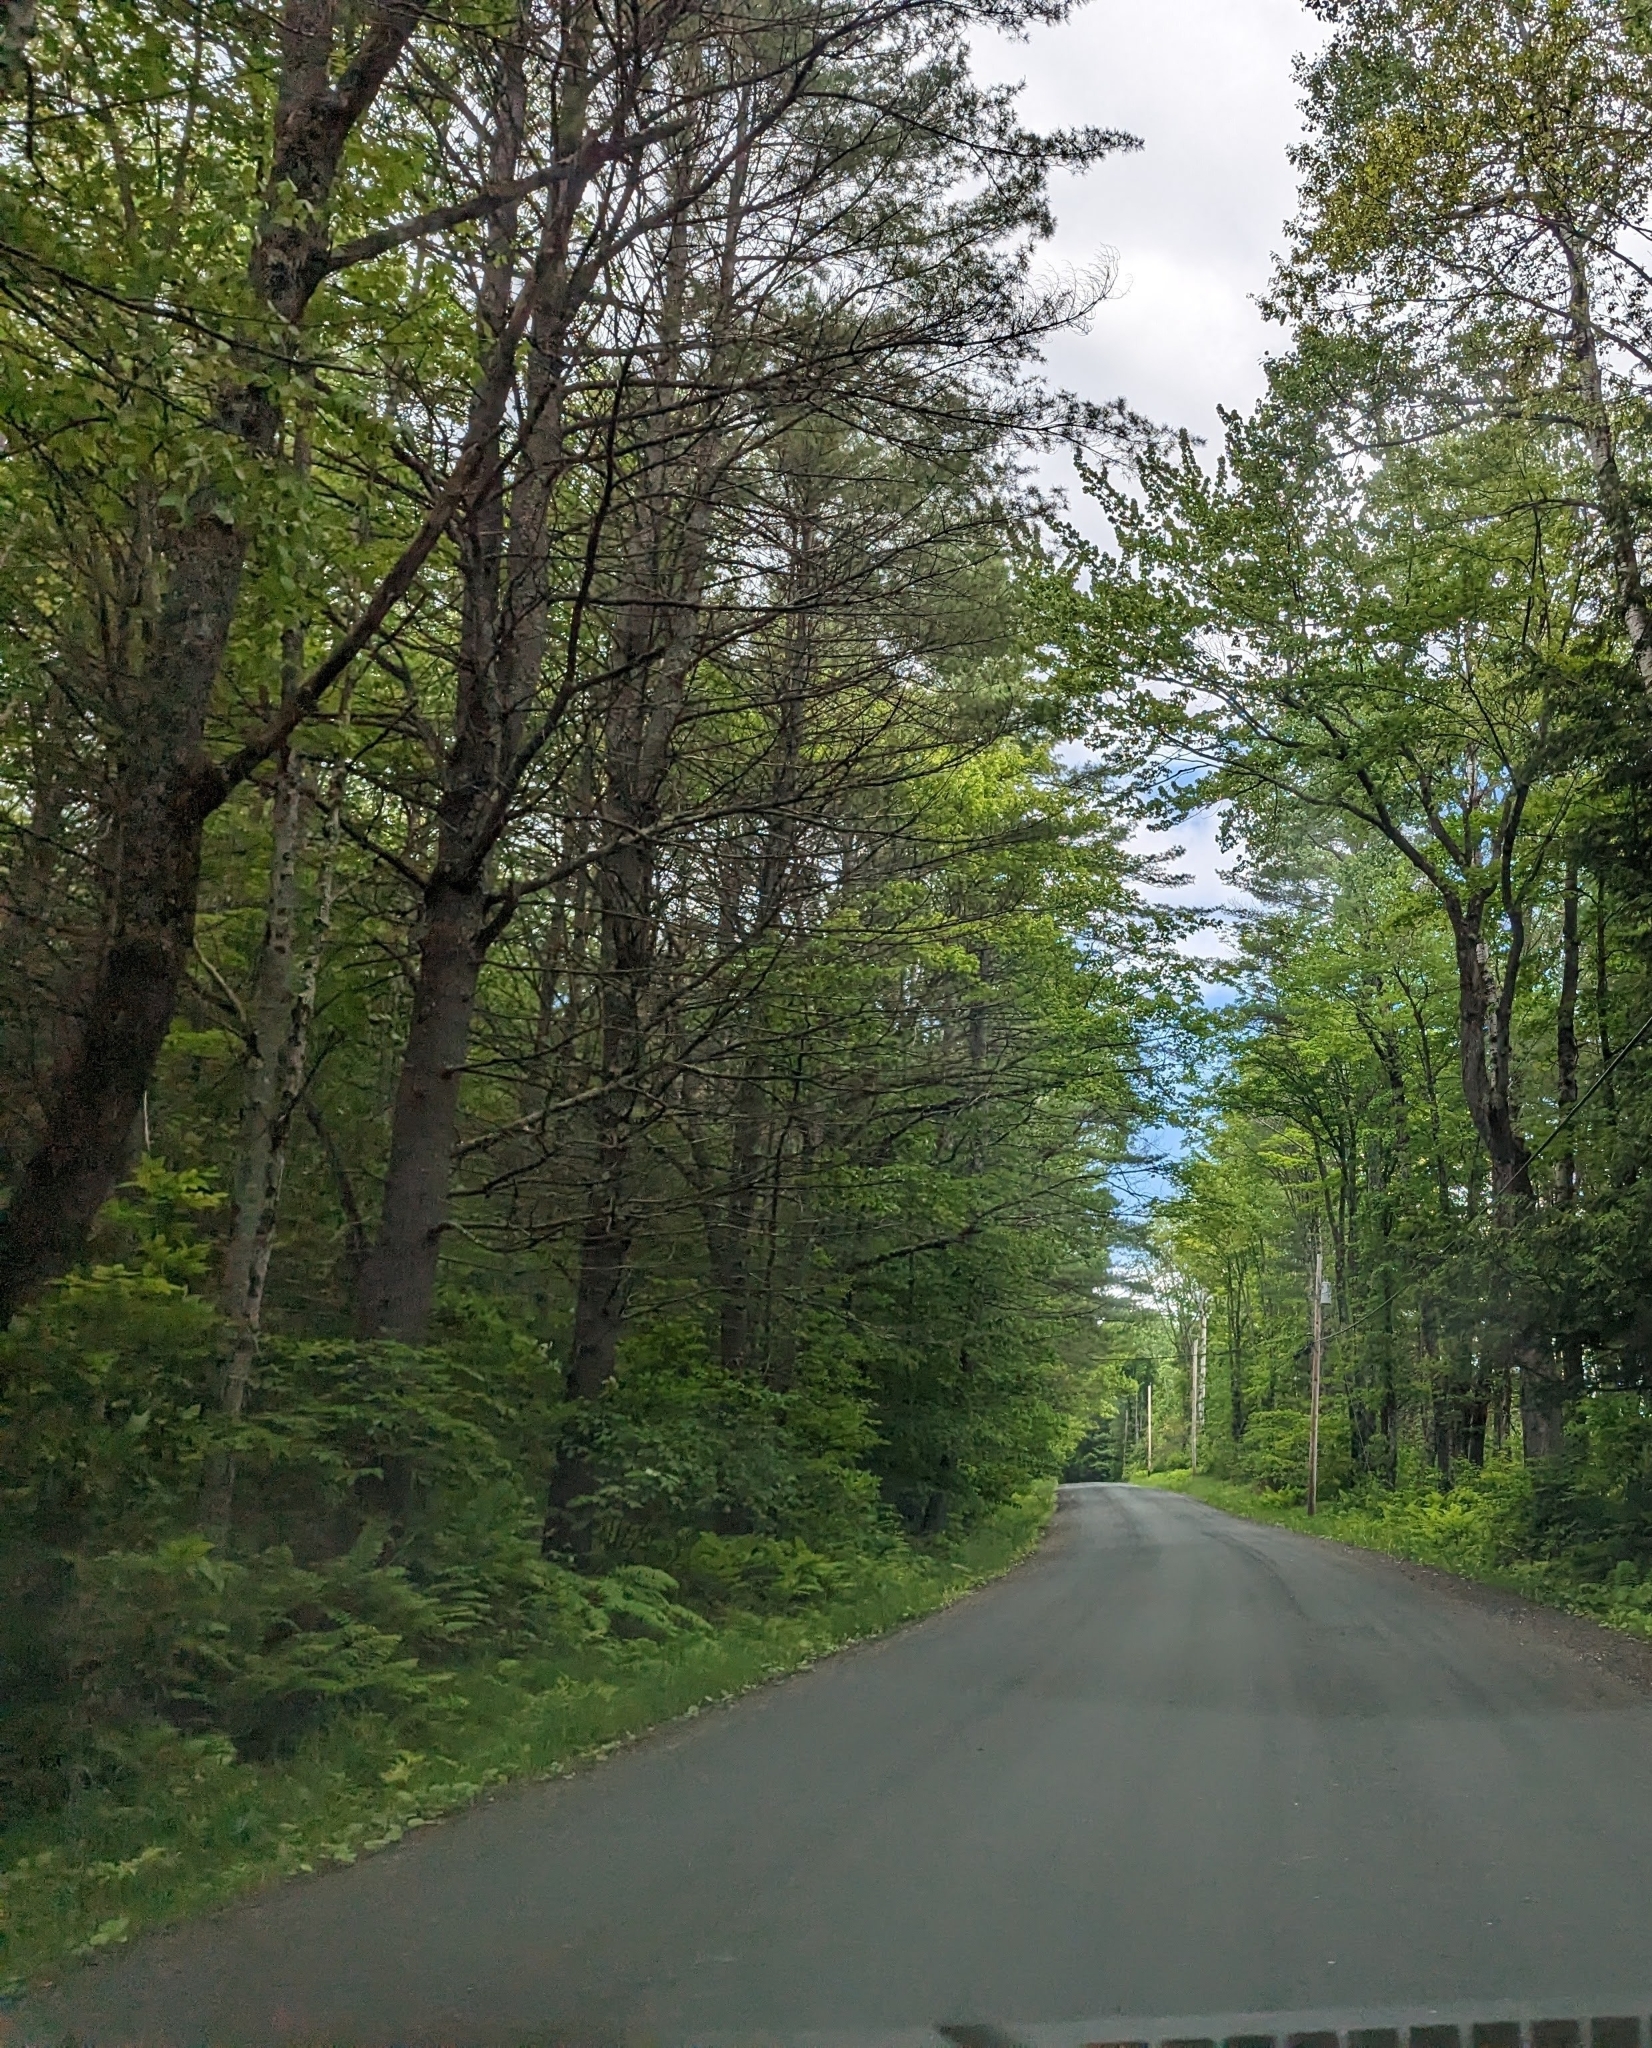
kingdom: Plantae
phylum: Tracheophyta
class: Pinopsida
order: Pinales
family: Pinaceae
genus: Pinus
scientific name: Pinus strobus
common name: Weymouth pine
